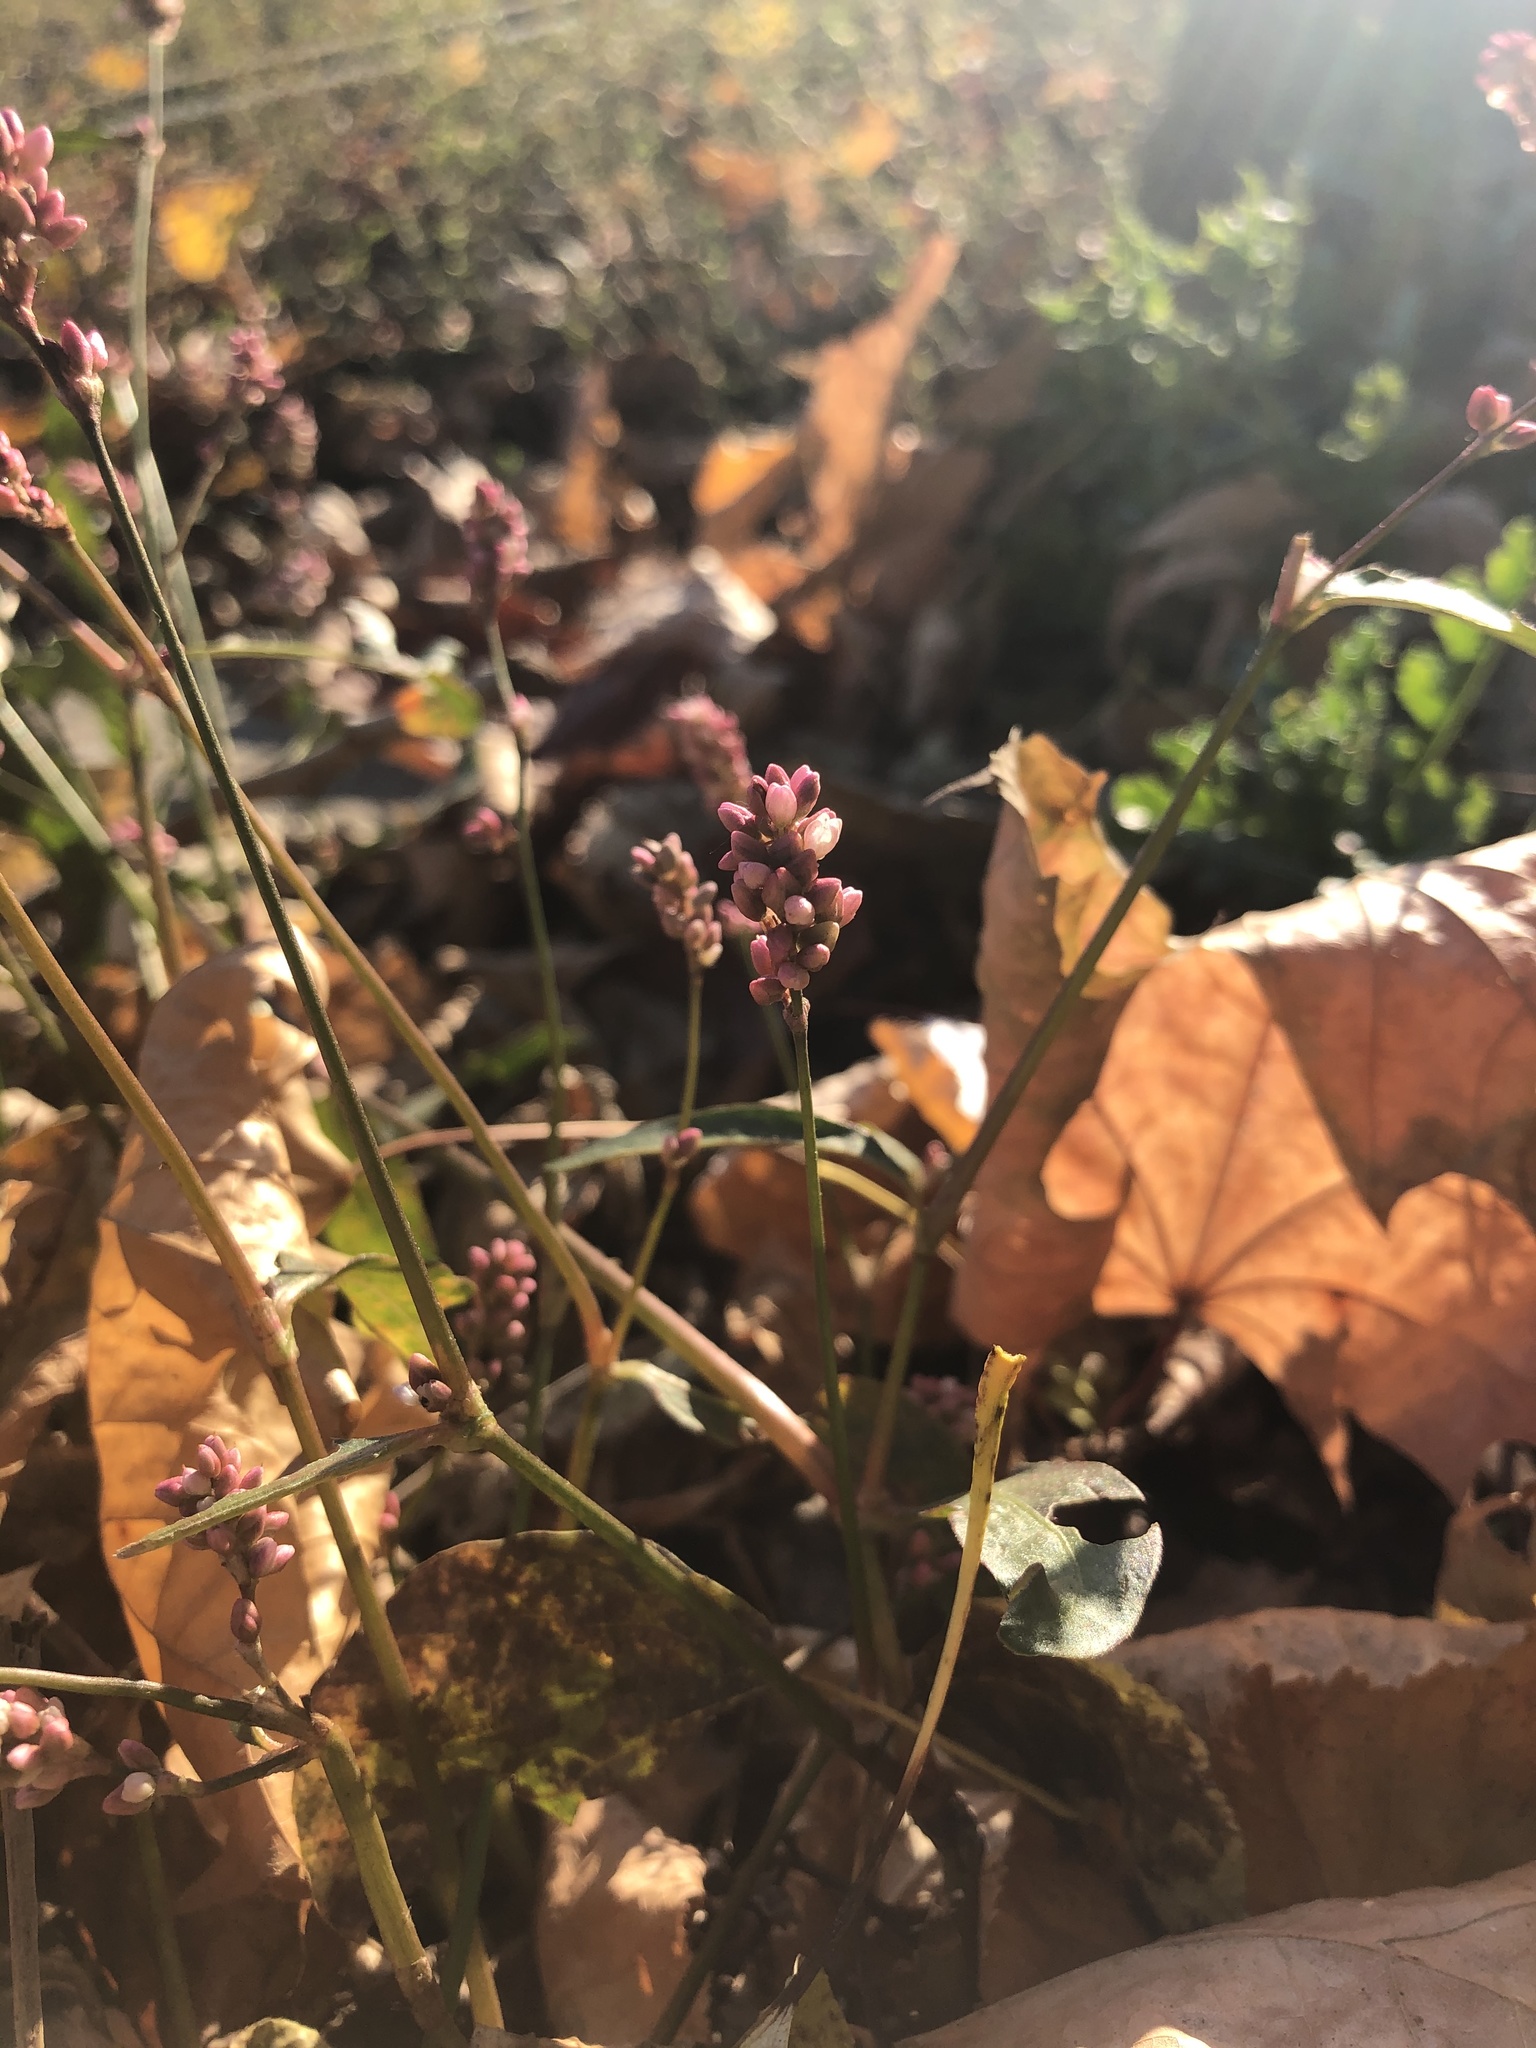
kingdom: Plantae
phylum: Tracheophyta
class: Magnoliopsida
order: Caryophyllales
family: Polygonaceae
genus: Persicaria
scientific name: Persicaria maculosa
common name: Redshank
